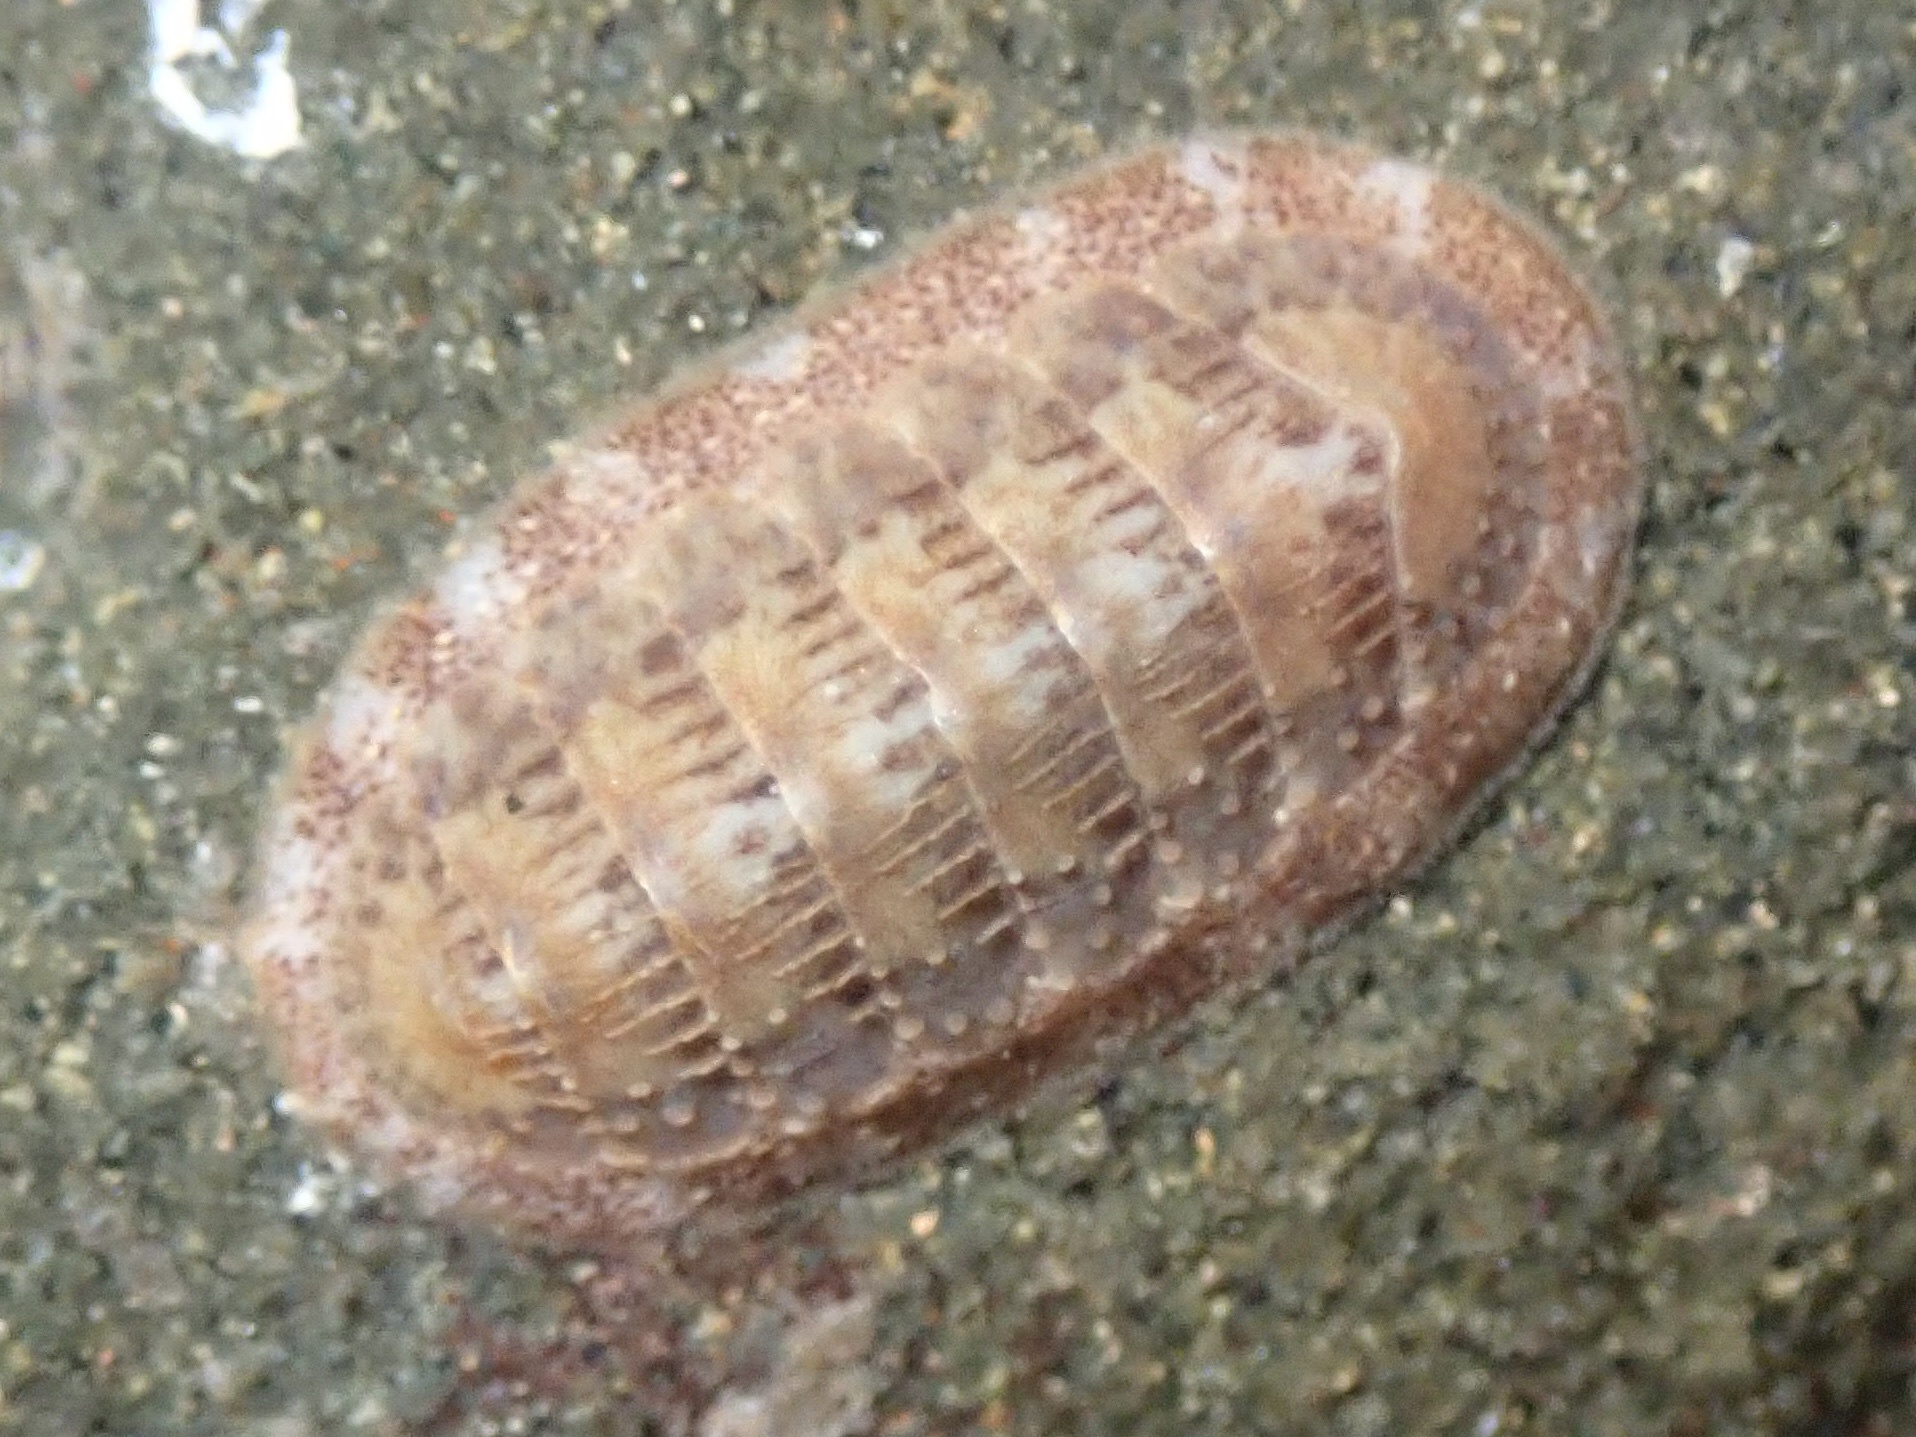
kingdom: Animalia
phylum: Mollusca
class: Polyplacophora
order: Chitonida
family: Ischnochitonidae
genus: Lepidozona
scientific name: Lepidozona mertensii
